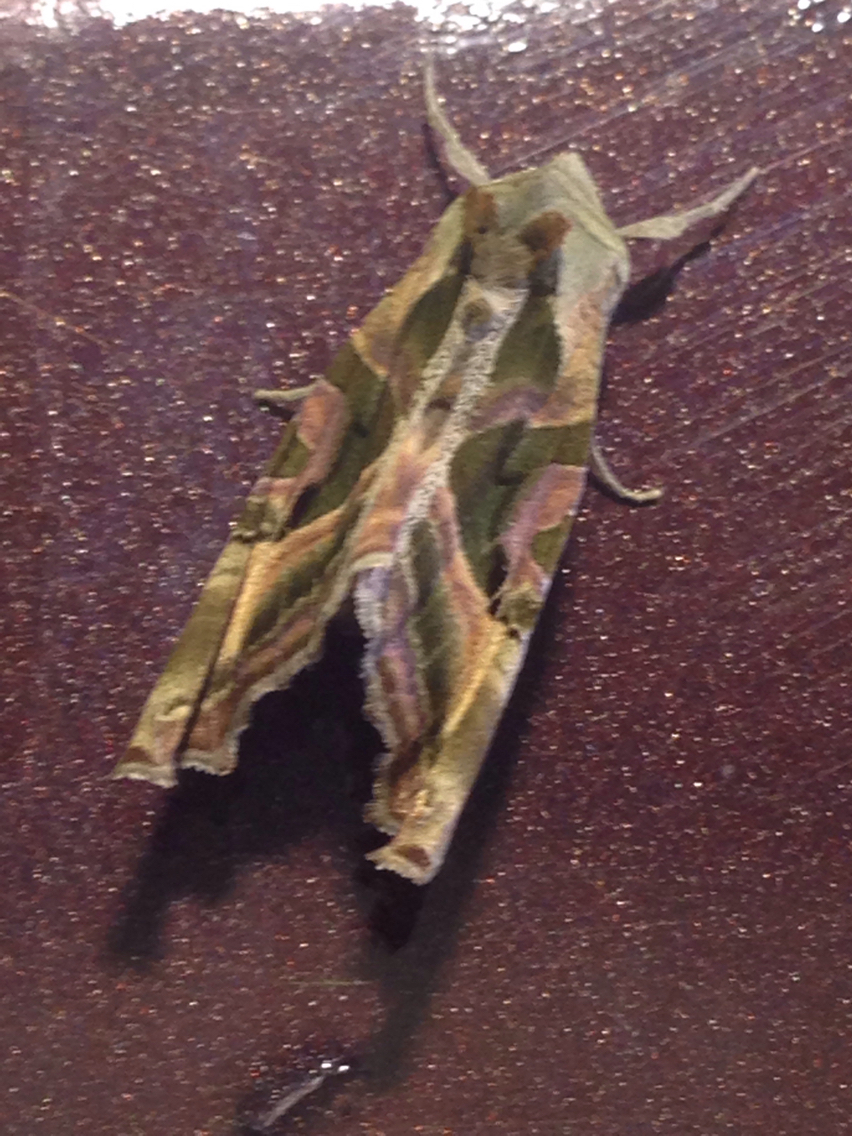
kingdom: Animalia
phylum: Arthropoda
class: Insecta
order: Lepidoptera
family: Noctuidae
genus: Phlogophora
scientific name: Phlogophora iris
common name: Olive angle shades
